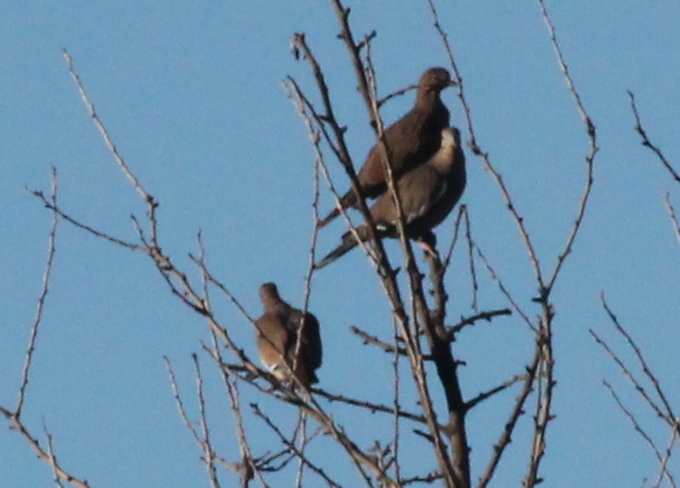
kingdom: Animalia
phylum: Chordata
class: Aves
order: Columbiformes
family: Columbidae
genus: Zenaida
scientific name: Zenaida asiatica
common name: White-winged dove
